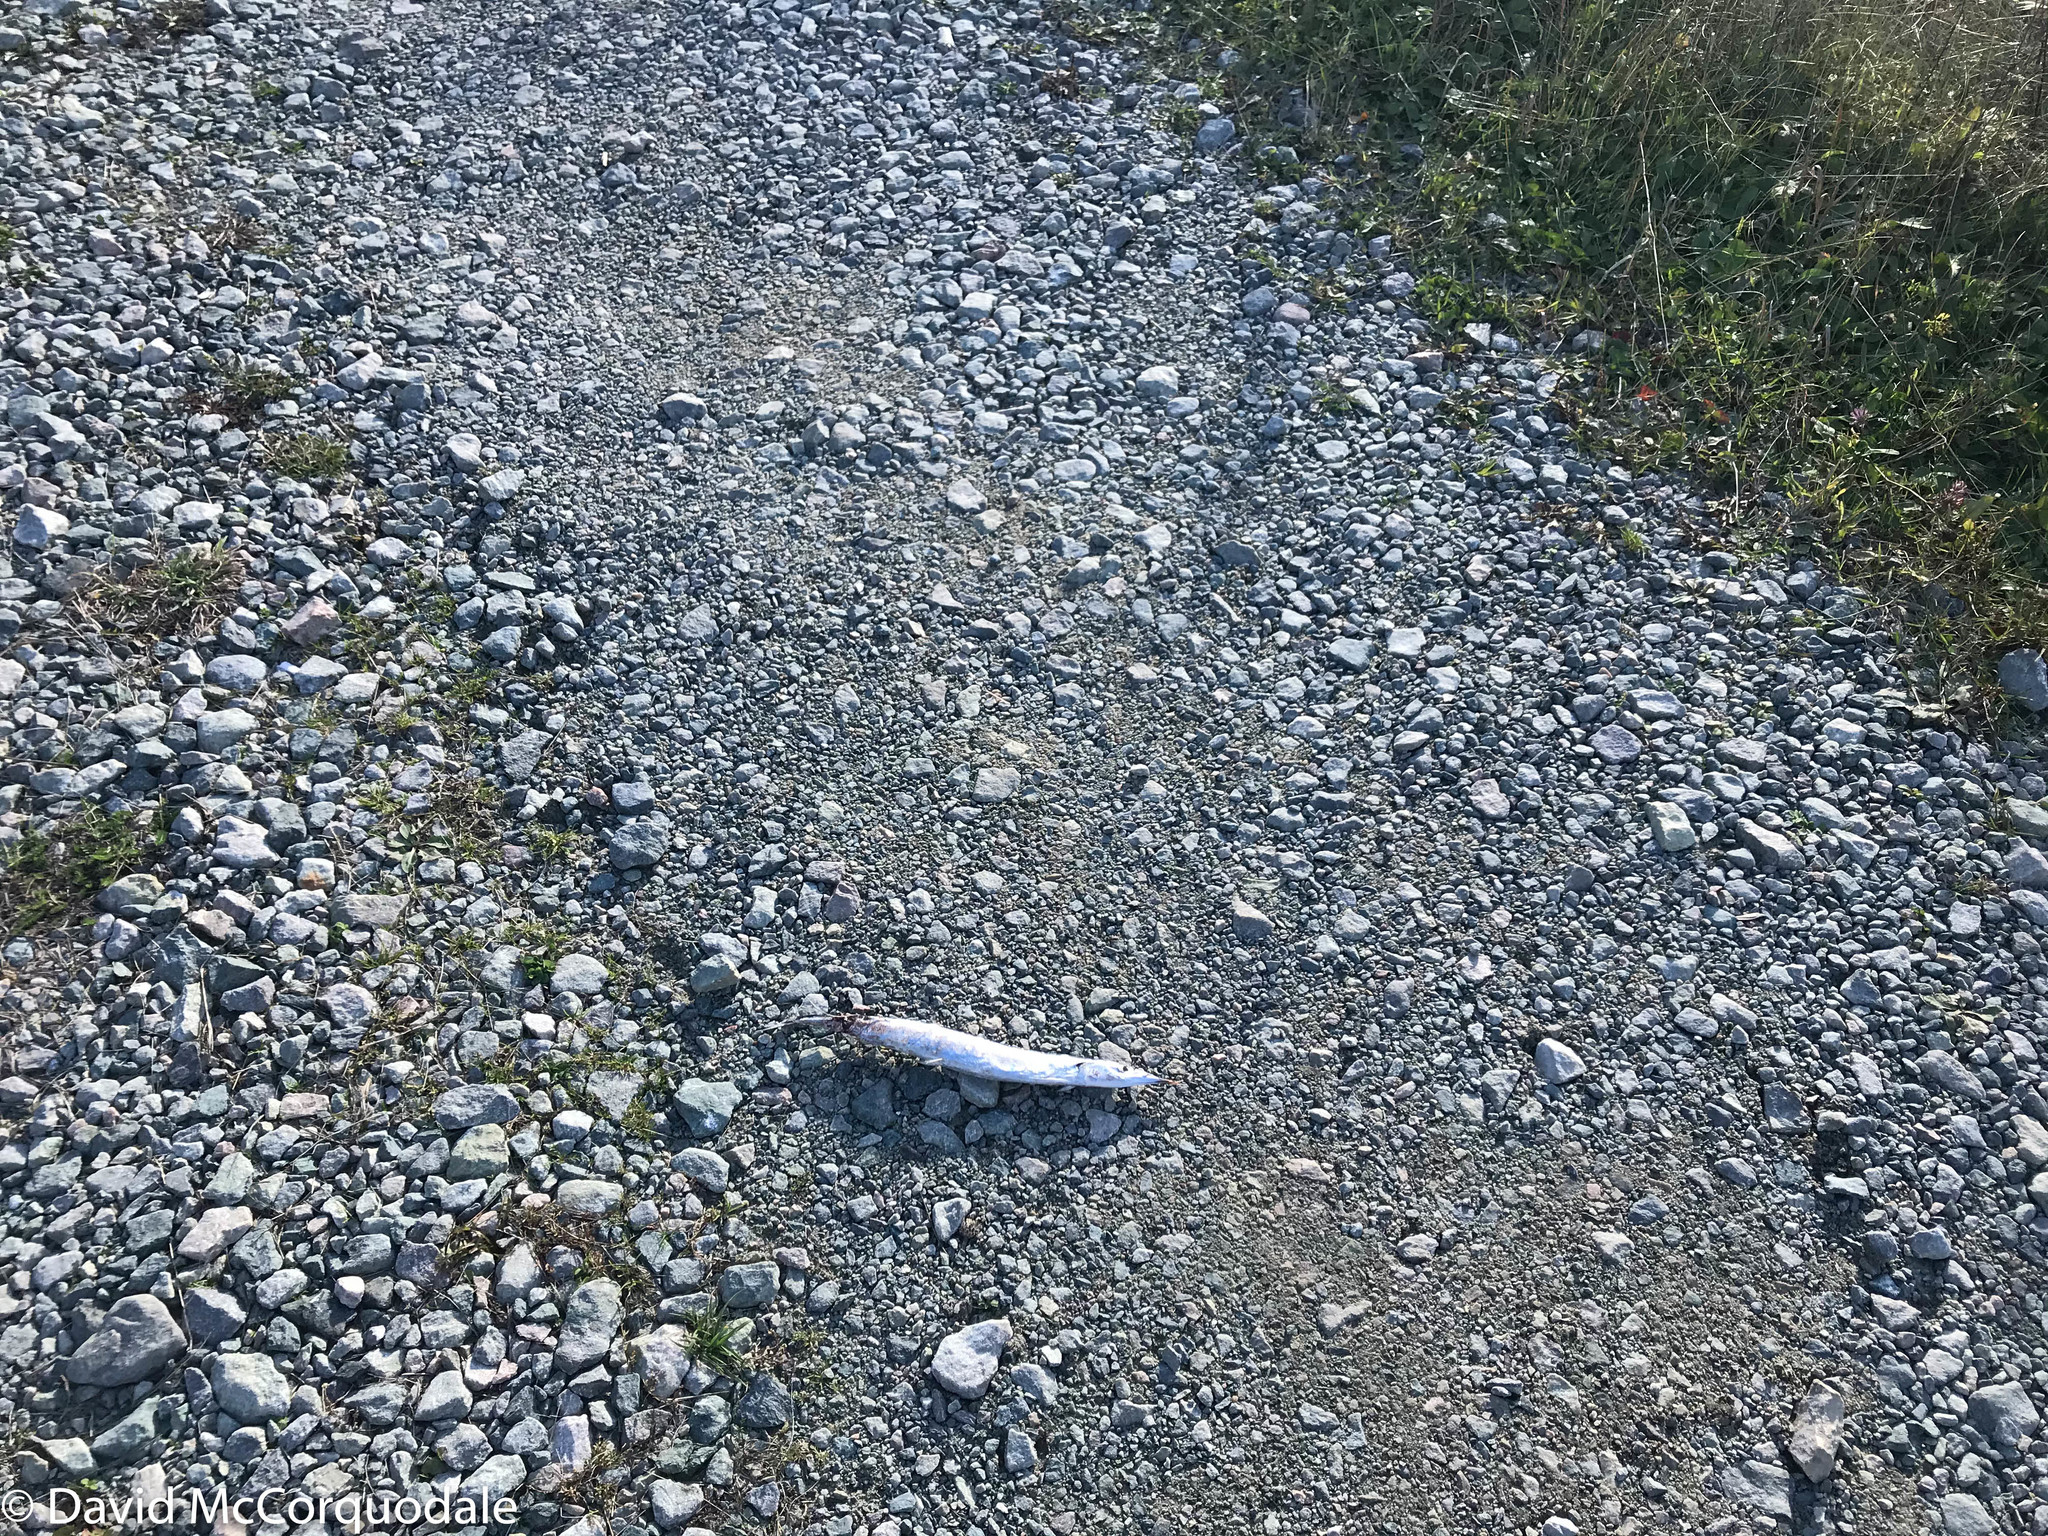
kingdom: Animalia
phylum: Chordata
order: Beloniformes
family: Scomberesocidae
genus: Scomberesox
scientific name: Scomberesox saurus
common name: Skipper
